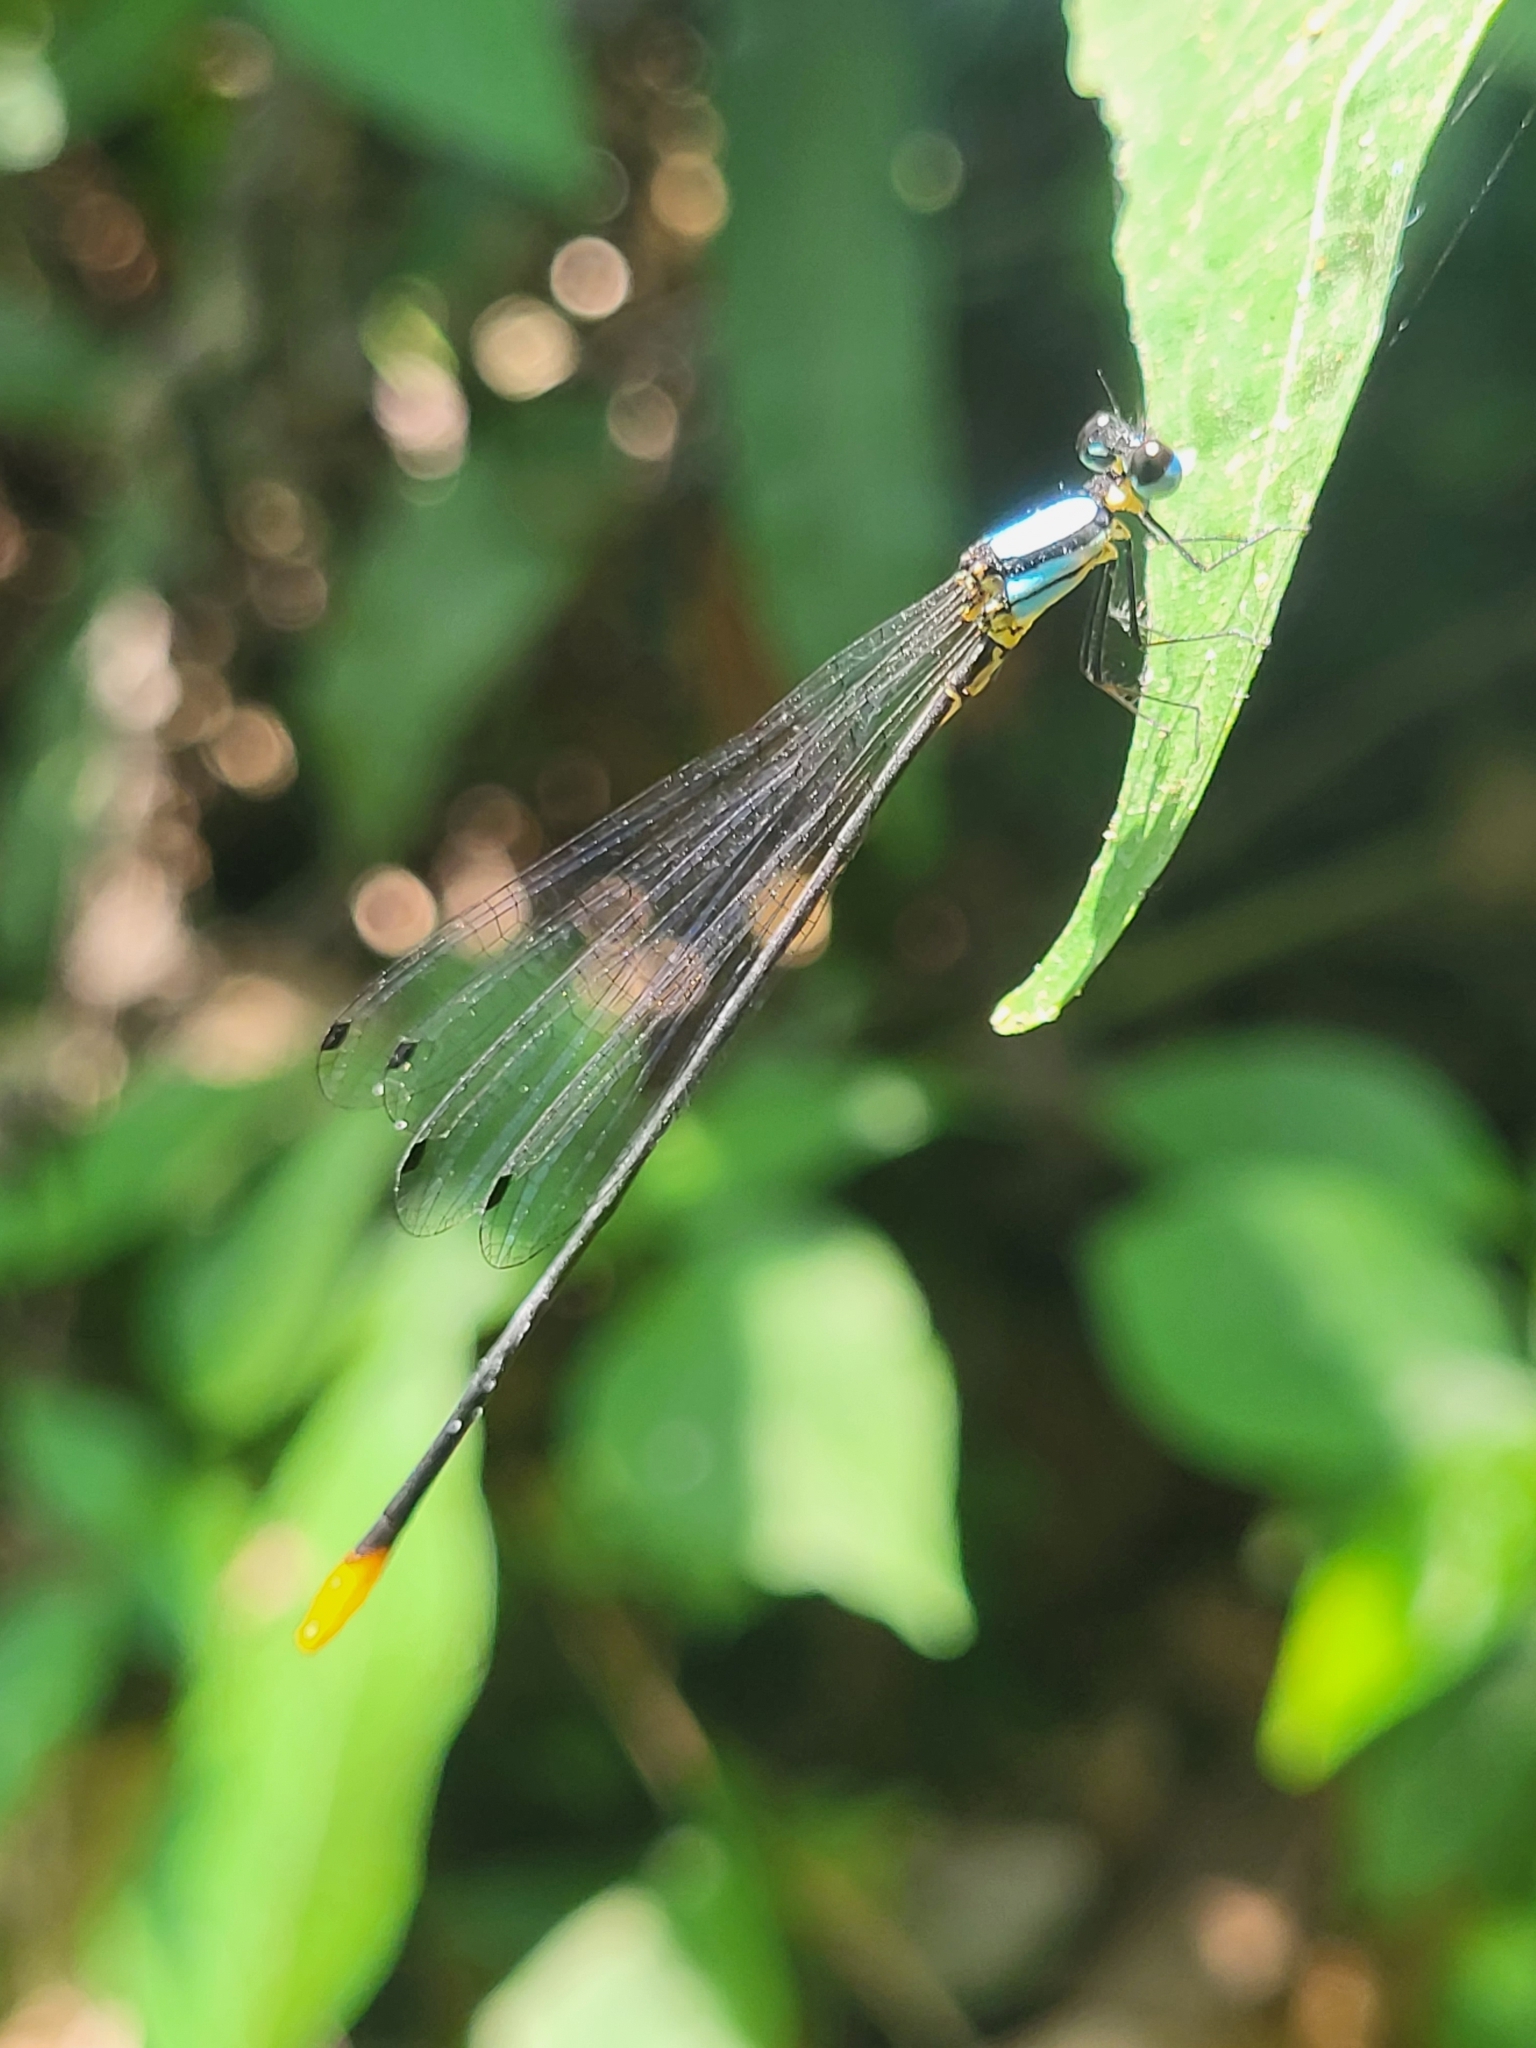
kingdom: Animalia
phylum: Arthropoda
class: Insecta
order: Odonata
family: Platycnemididae
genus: Coeliccia
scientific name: Coeliccia poungyi
